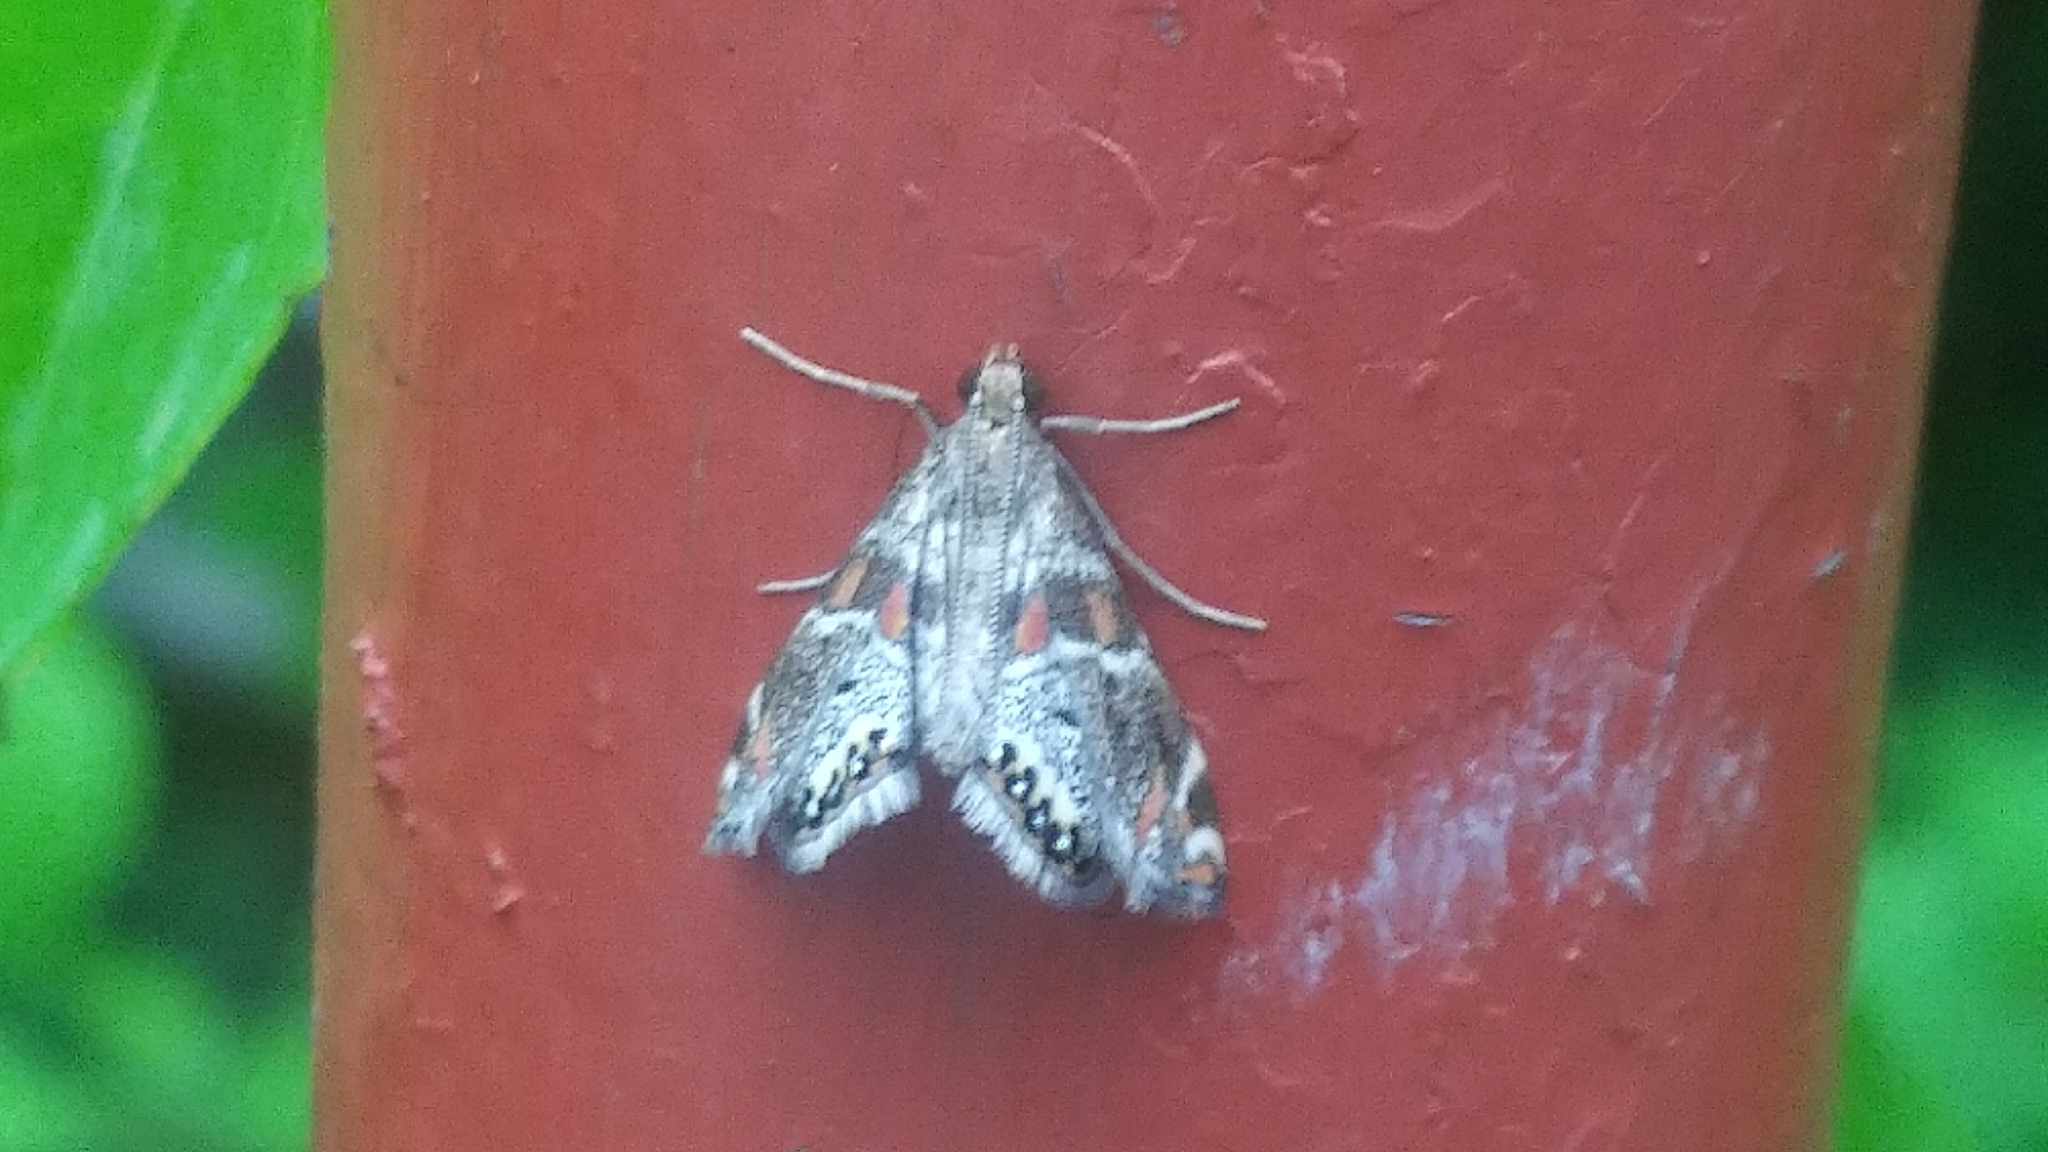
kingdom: Animalia
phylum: Arthropoda
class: Insecta
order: Lepidoptera
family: Crambidae
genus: Petrophila
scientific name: Petrophila jaliscalis
